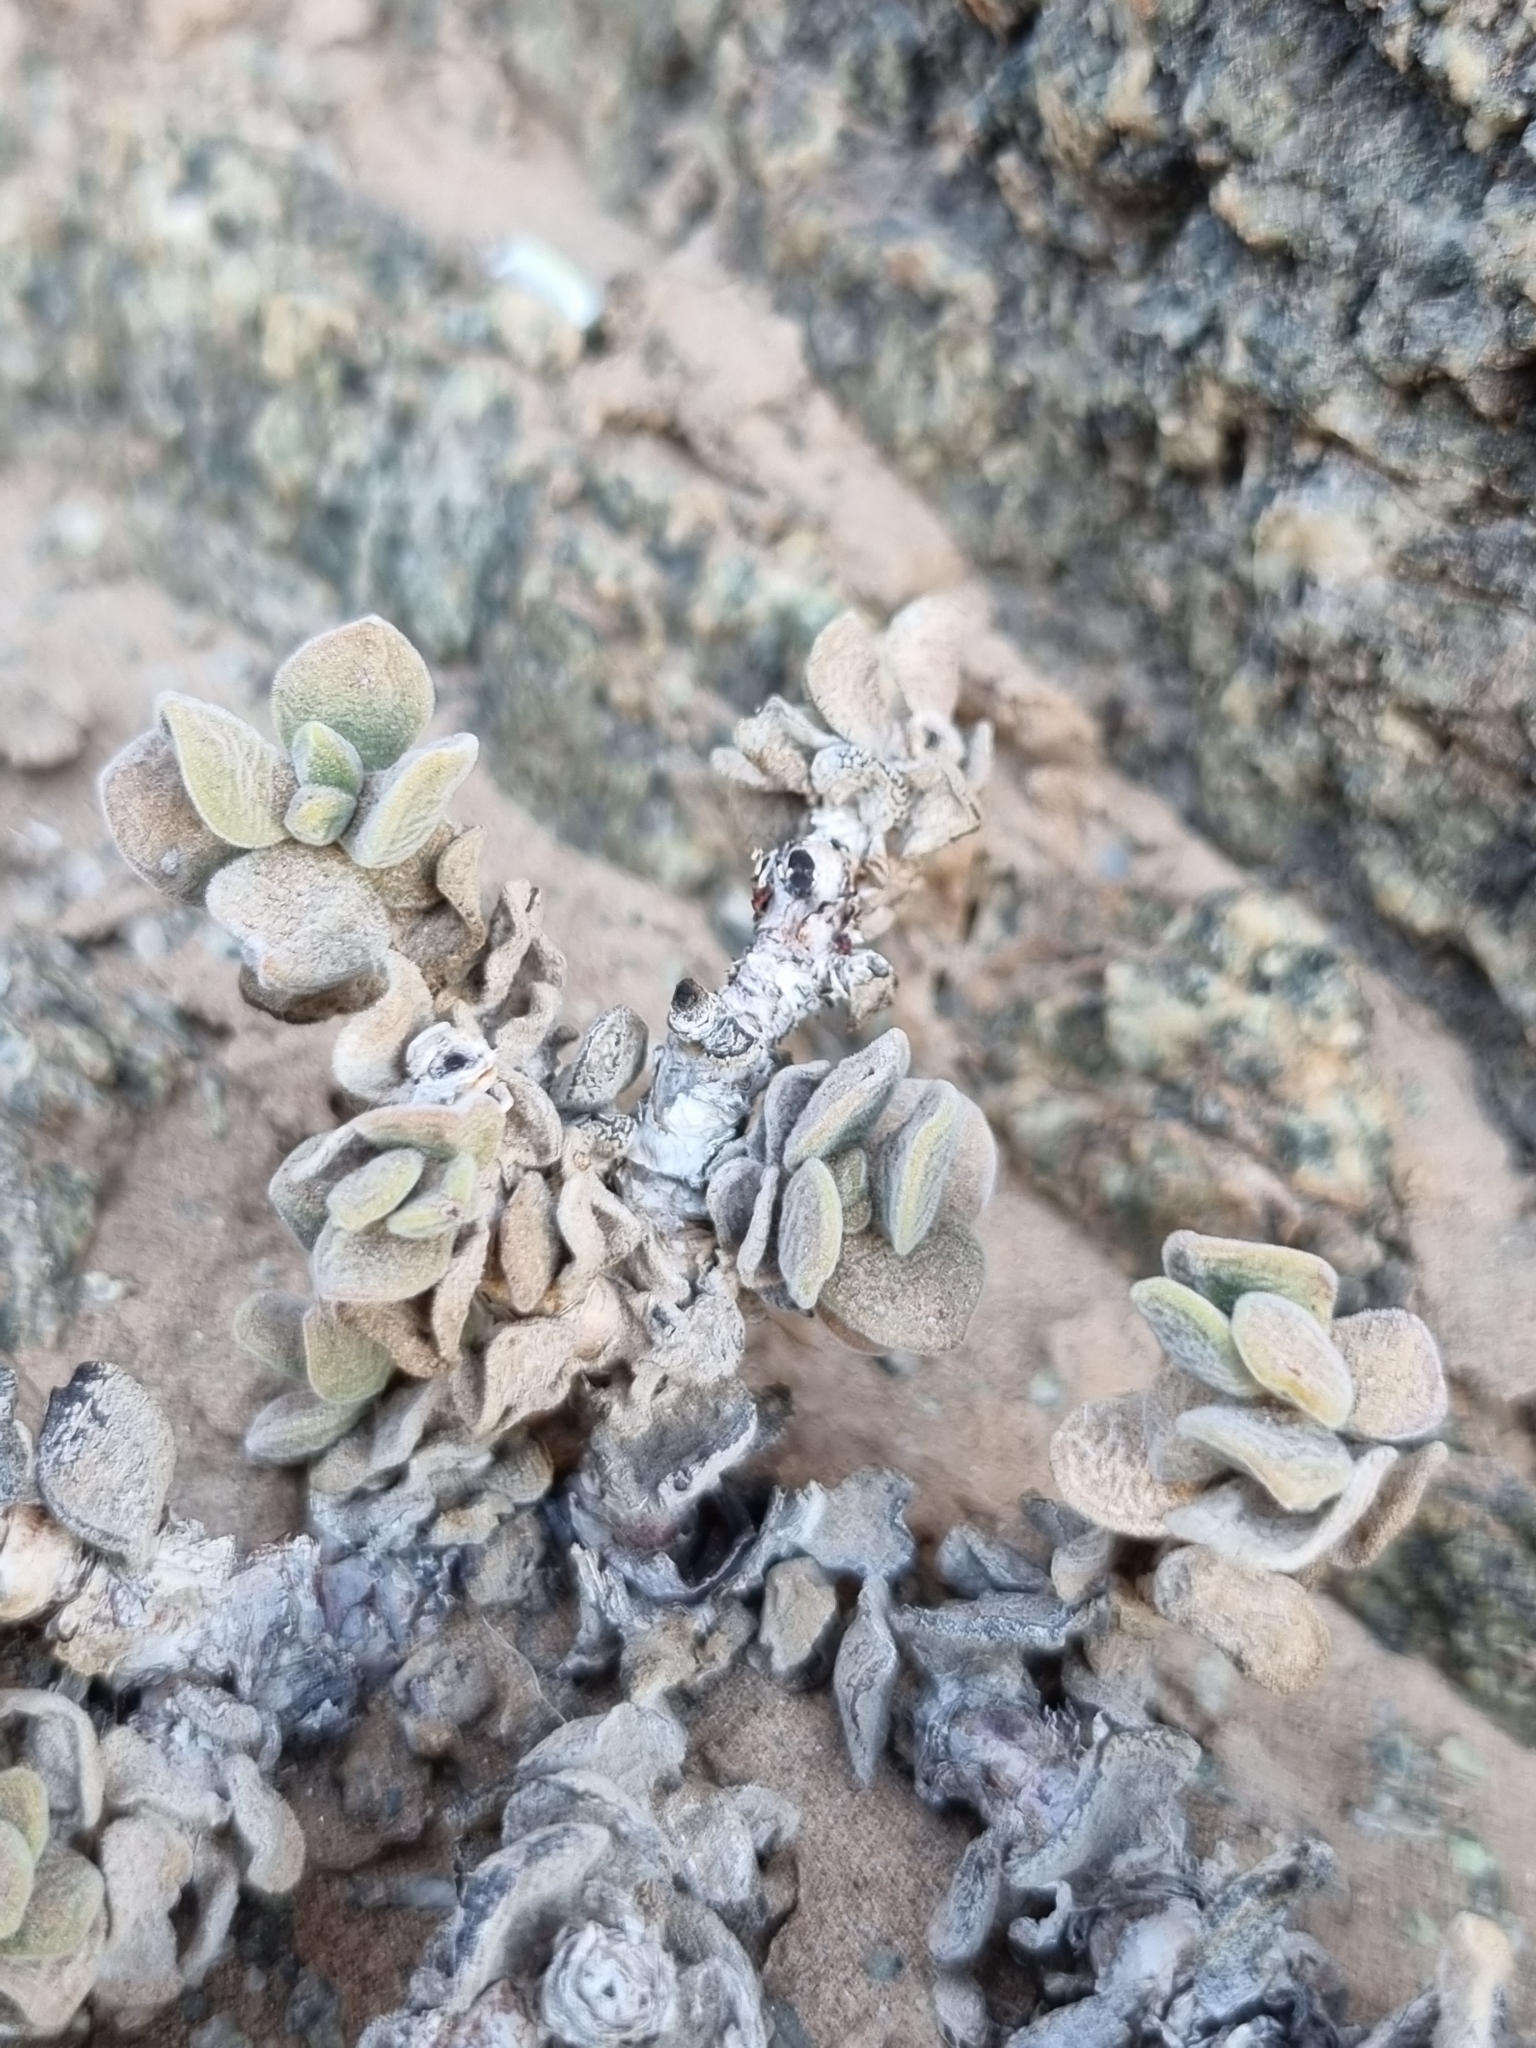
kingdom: Plantae
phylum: Tracheophyta
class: Magnoliopsida
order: Saxifragales
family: Crassulaceae
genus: Crassula
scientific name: Crassula sericea
